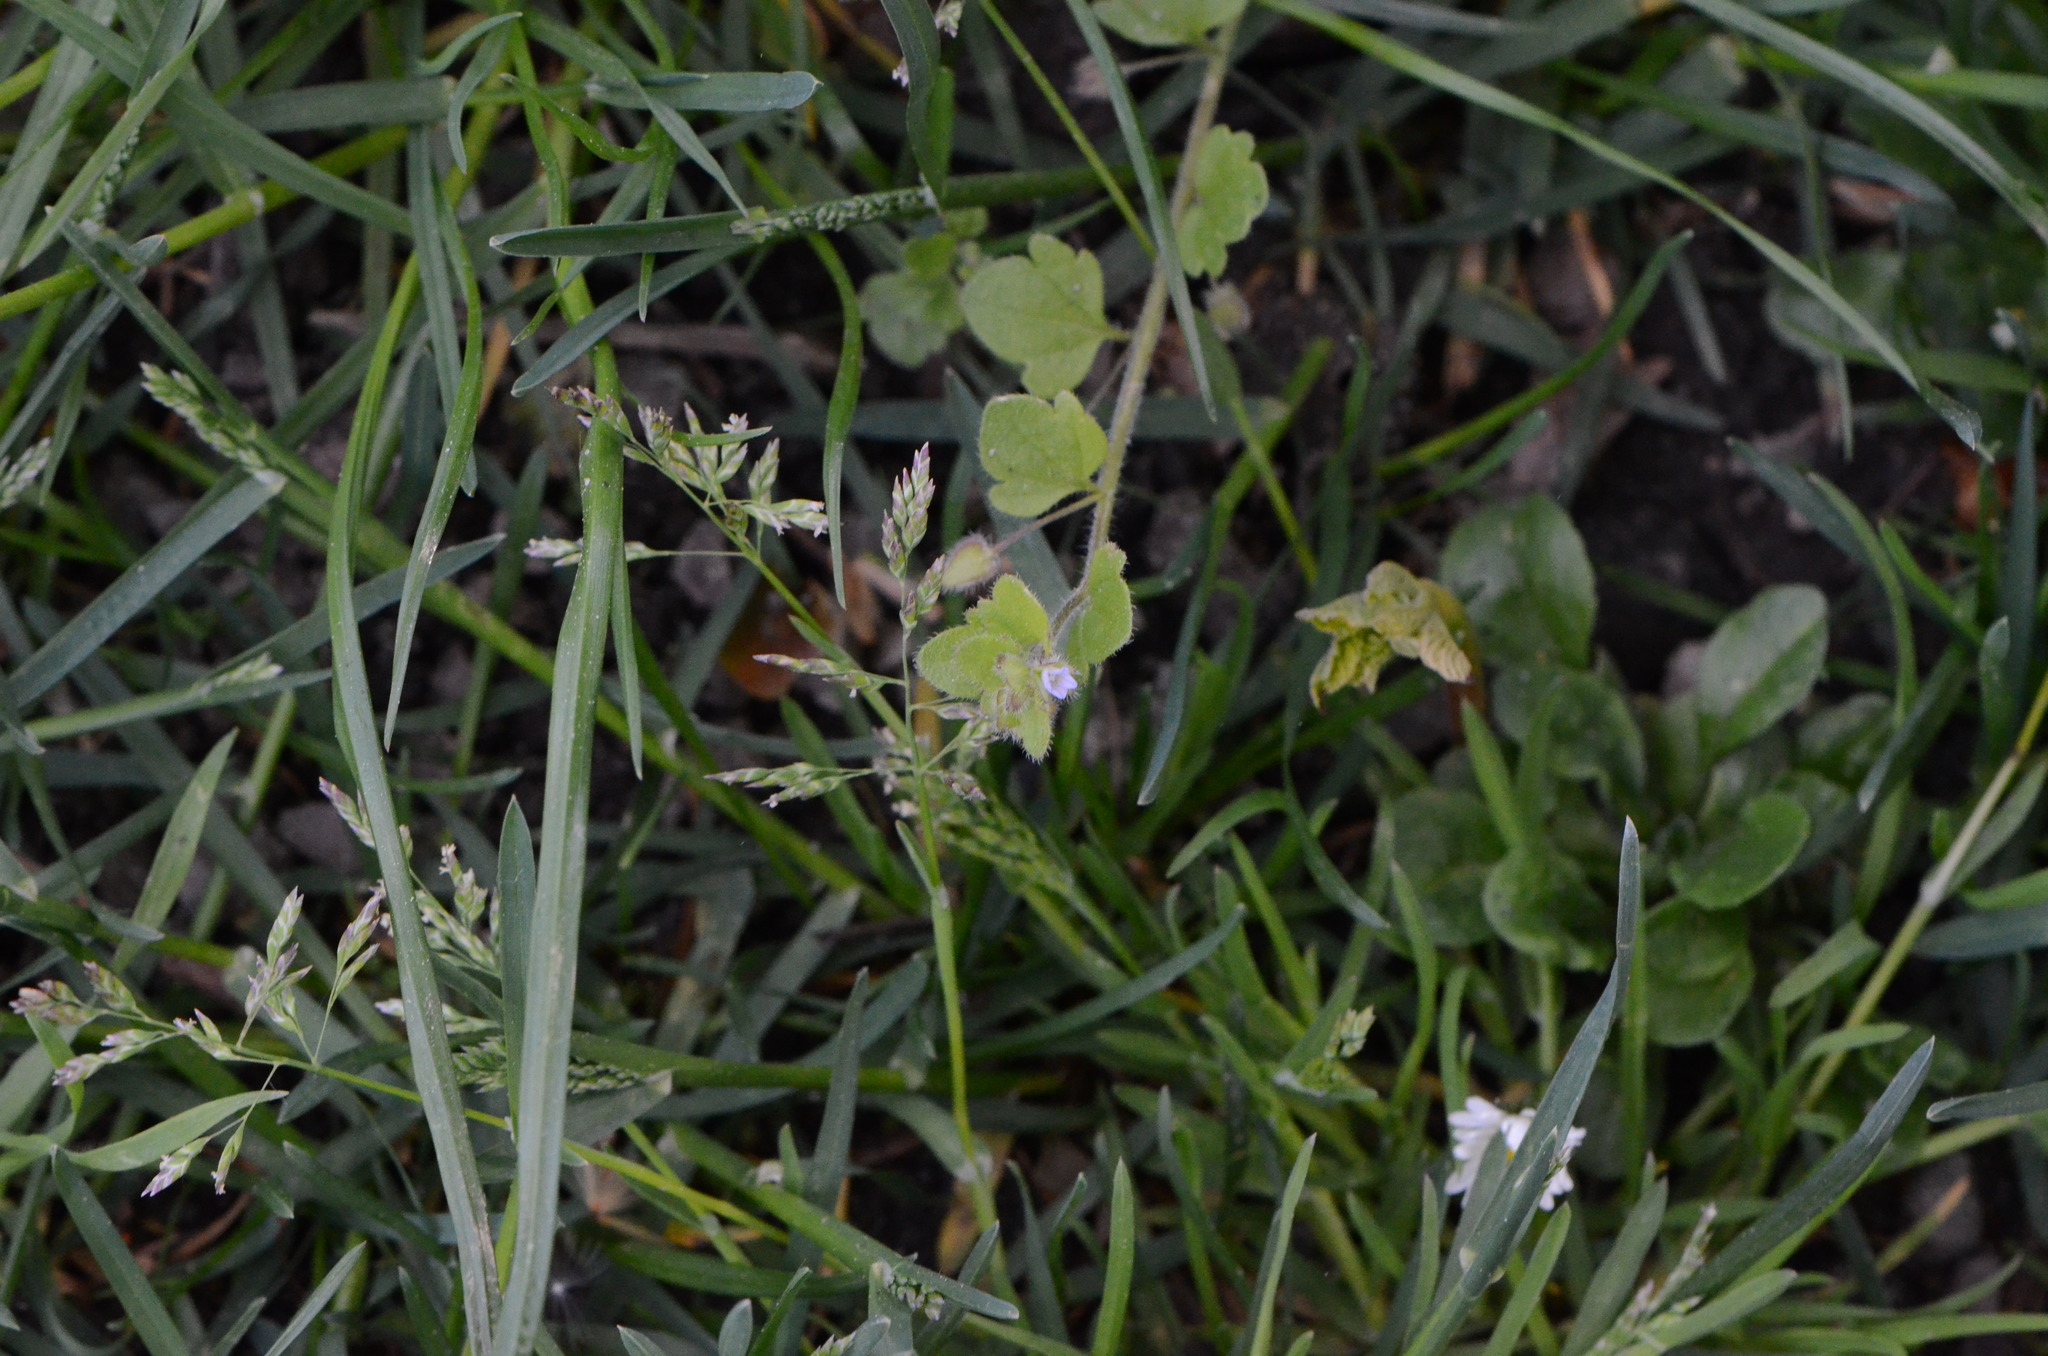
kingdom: Plantae
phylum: Tracheophyta
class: Magnoliopsida
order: Lamiales
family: Plantaginaceae
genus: Veronica
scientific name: Veronica sublobata
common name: False ivy-leaved speedwell
